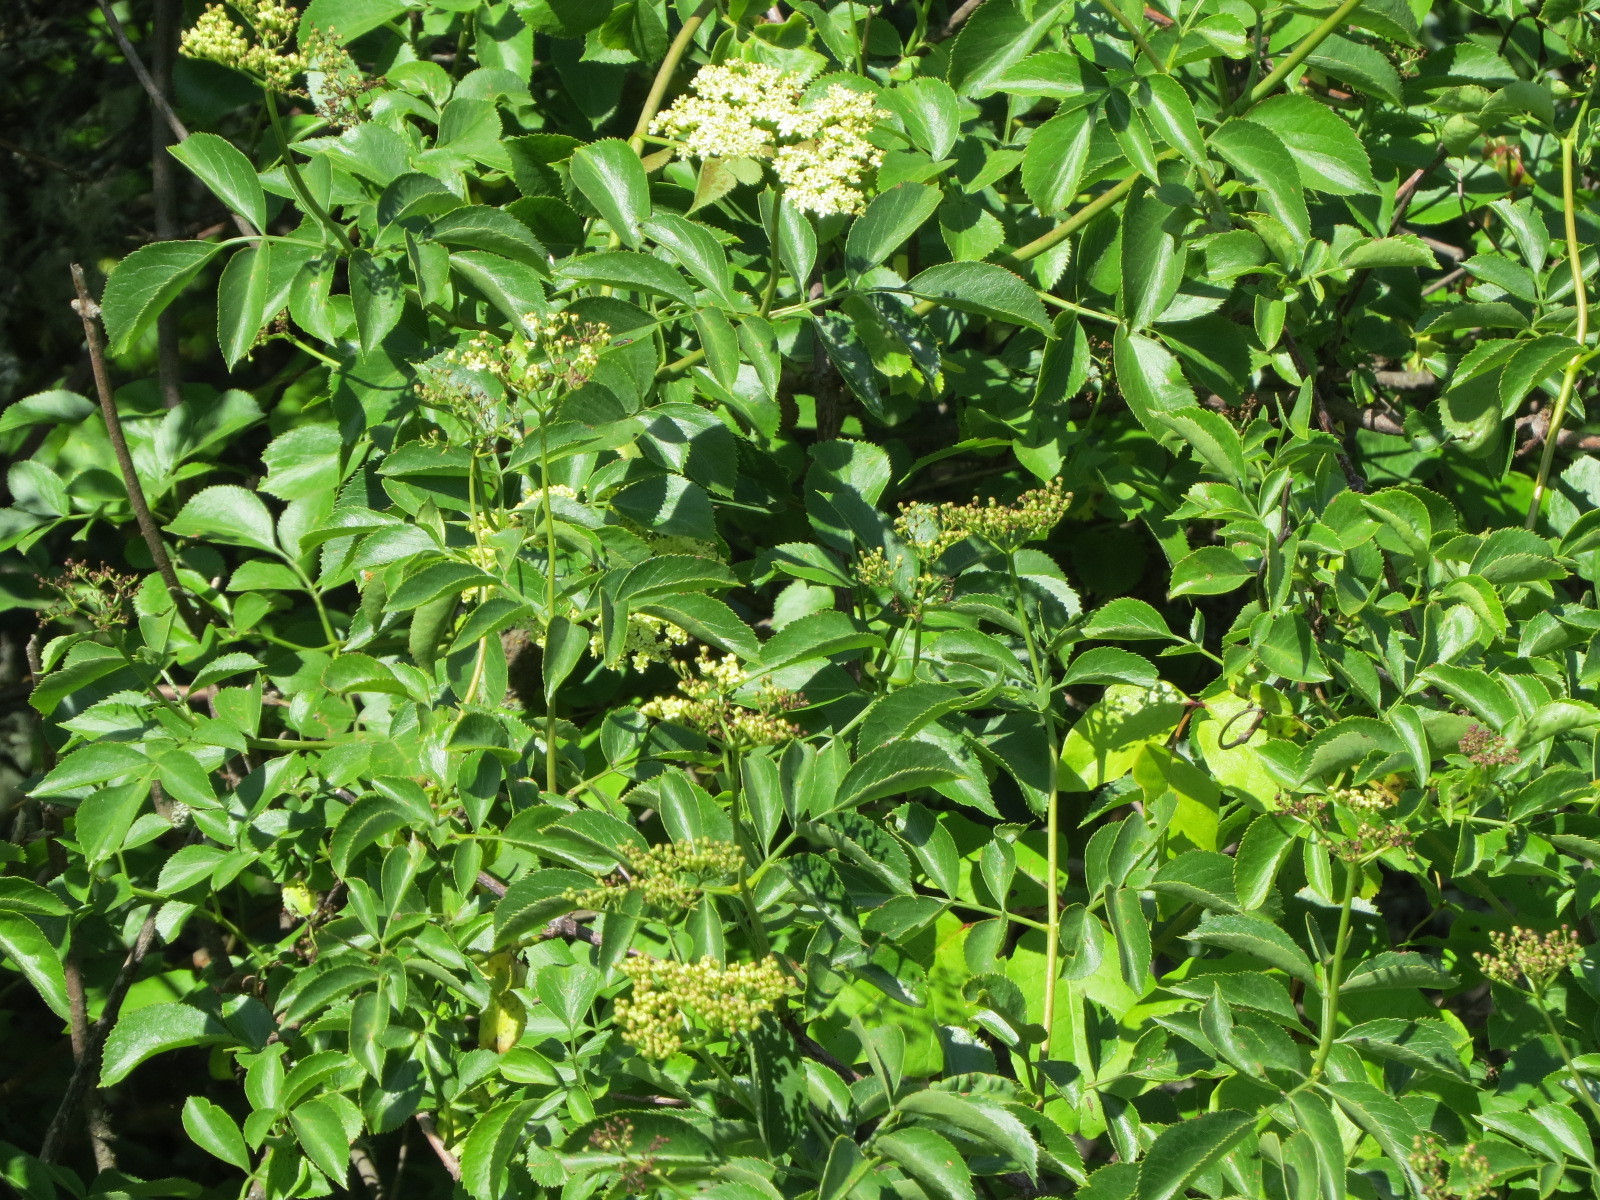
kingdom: Plantae
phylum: Tracheophyta
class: Magnoliopsida
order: Dipsacales
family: Viburnaceae
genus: Sambucus
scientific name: Sambucus cerulea
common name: Blue elder
